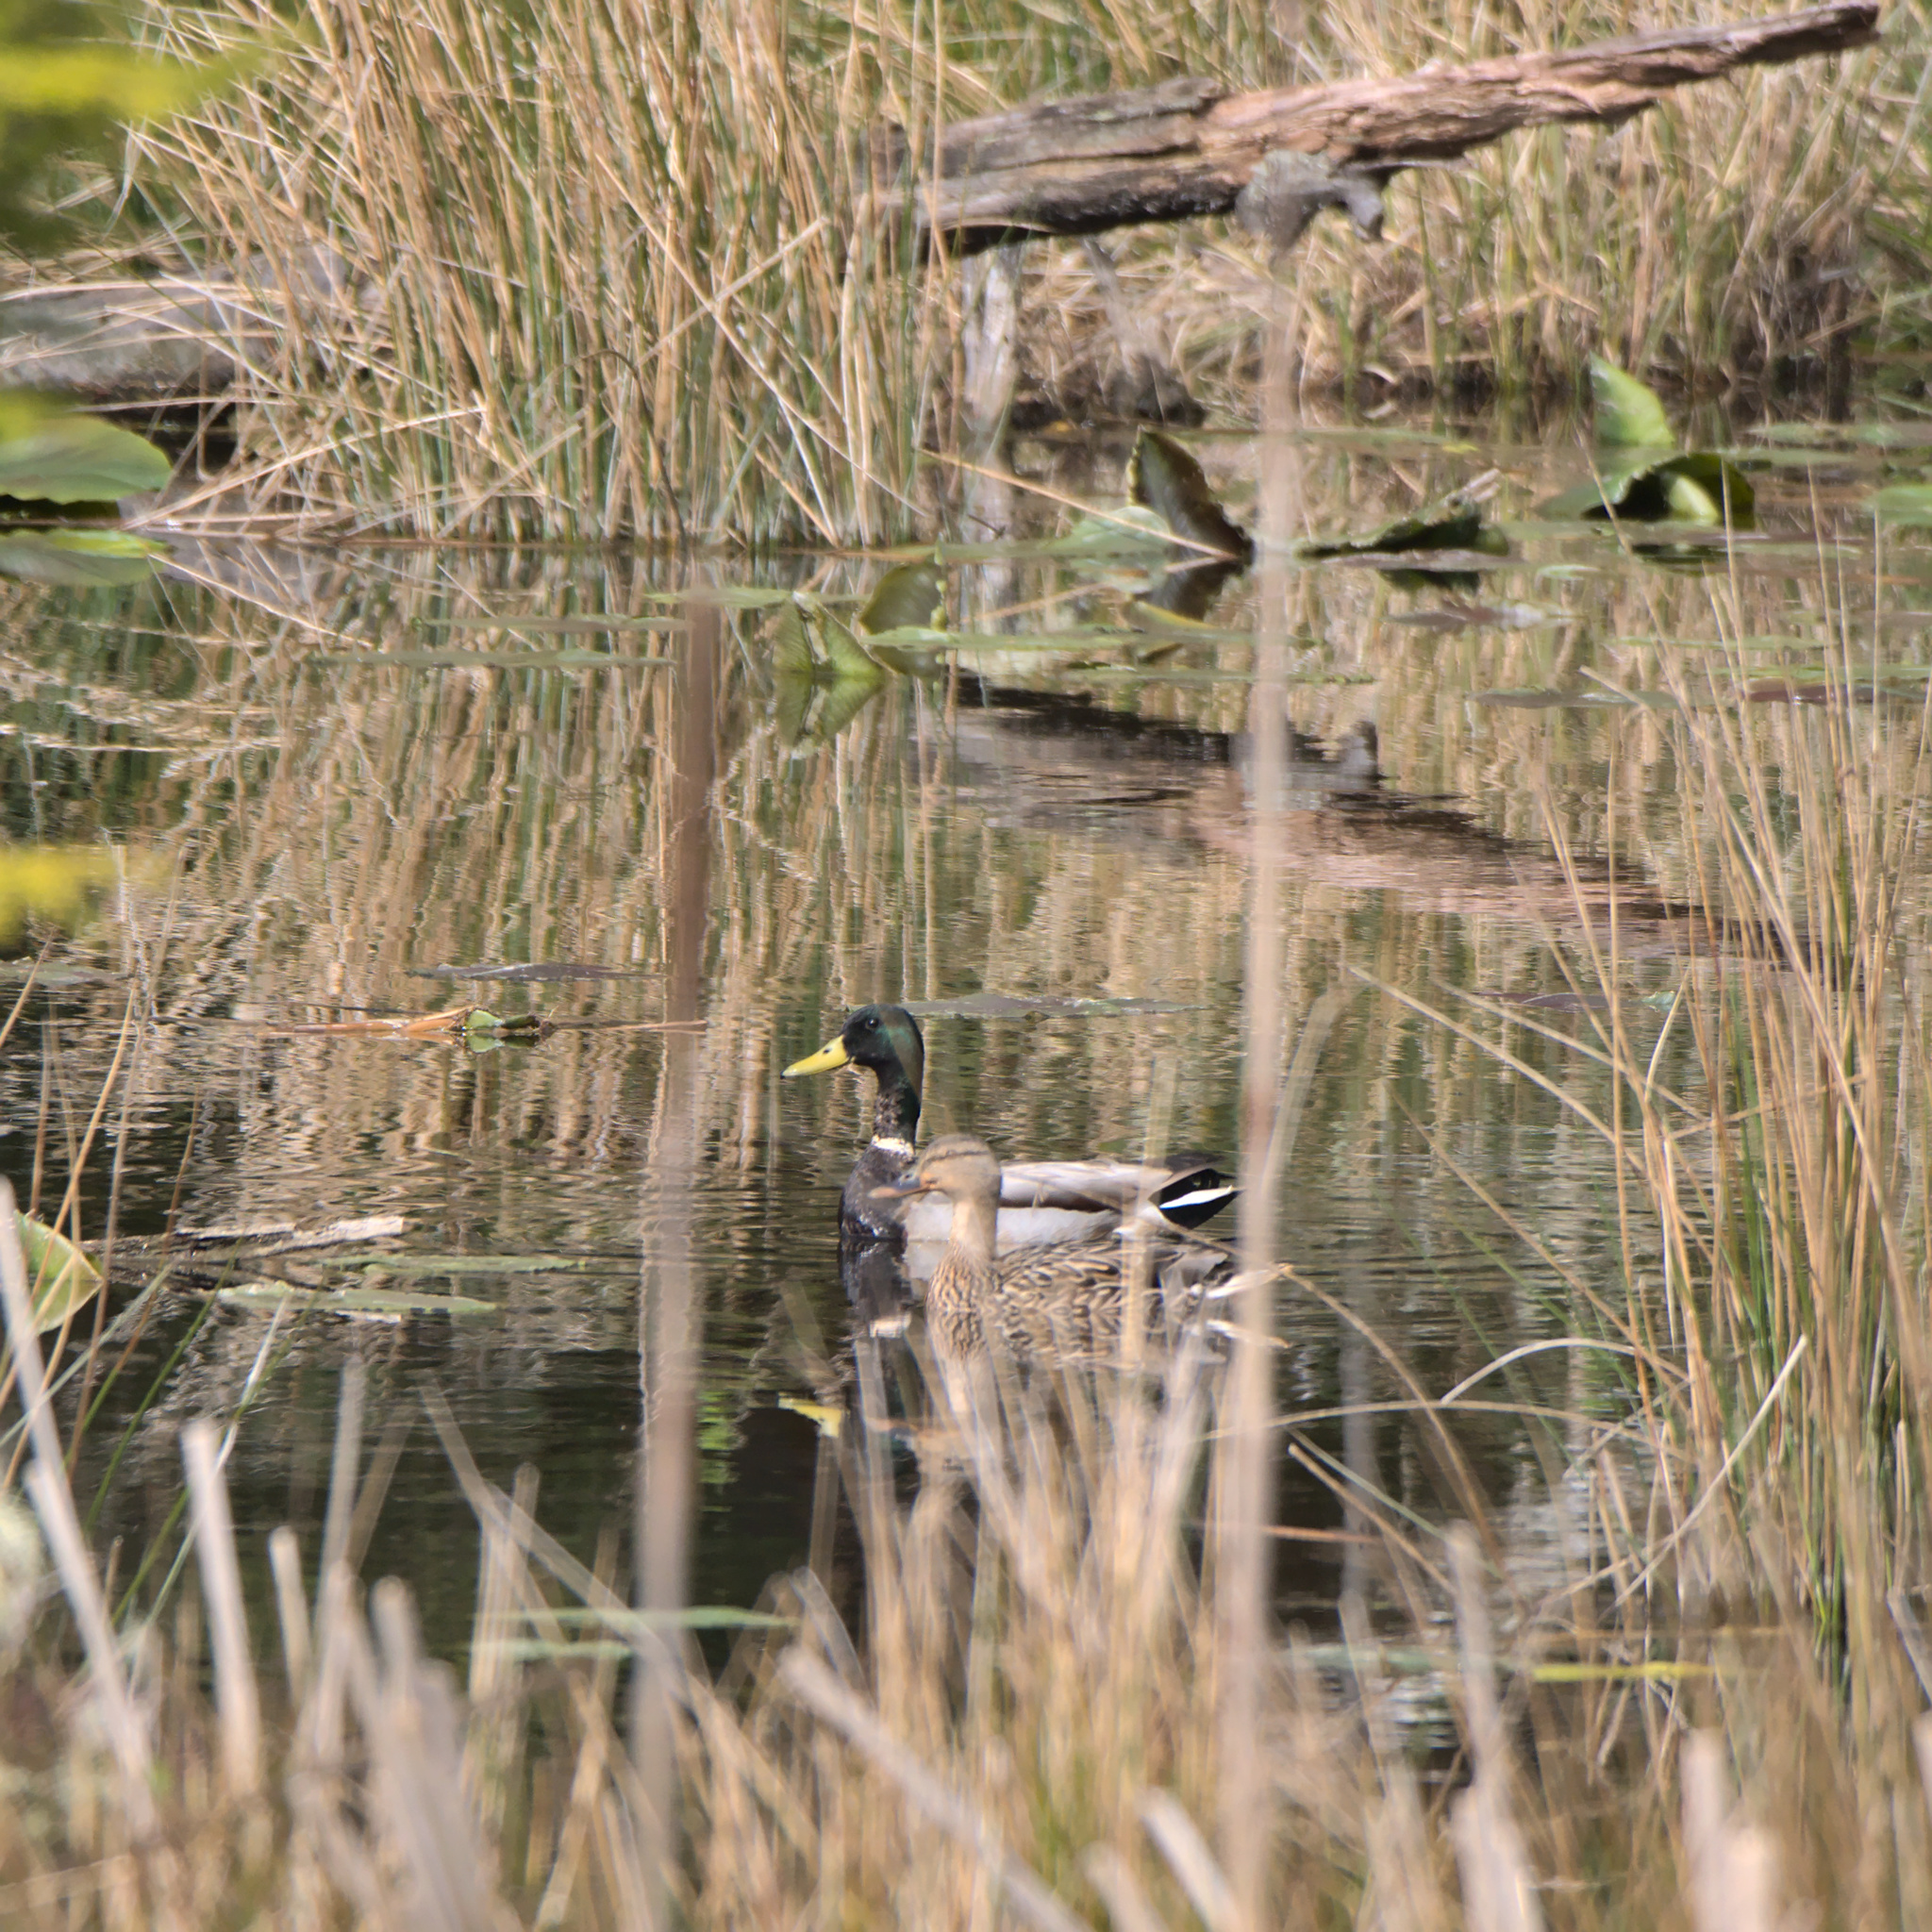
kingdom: Animalia
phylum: Chordata
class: Aves
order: Anseriformes
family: Anatidae
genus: Anas
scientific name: Anas platyrhynchos
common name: Mallard
